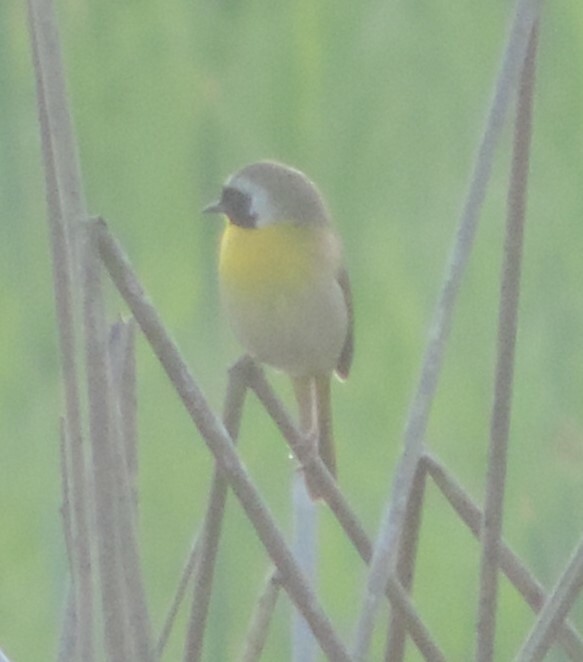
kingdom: Animalia
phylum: Chordata
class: Aves
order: Passeriformes
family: Parulidae
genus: Geothlypis
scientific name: Geothlypis trichas
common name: Common yellowthroat
